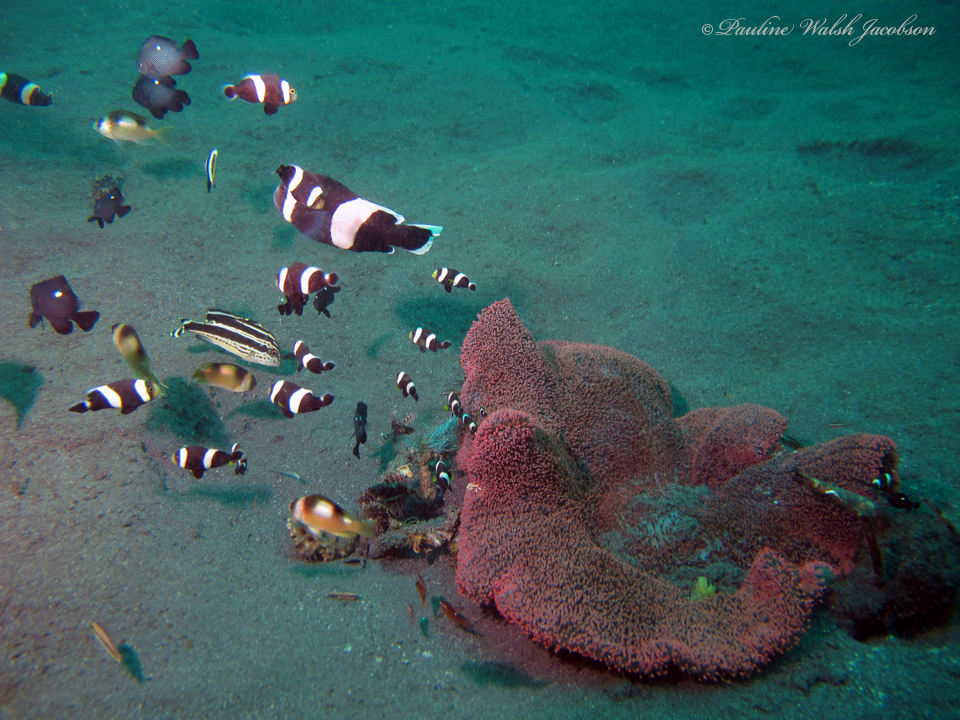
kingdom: Animalia
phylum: Chordata
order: Perciformes
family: Pomacentridae
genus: Dascyllus
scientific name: Dascyllus trimaculatus
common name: Threespot dascyllus
